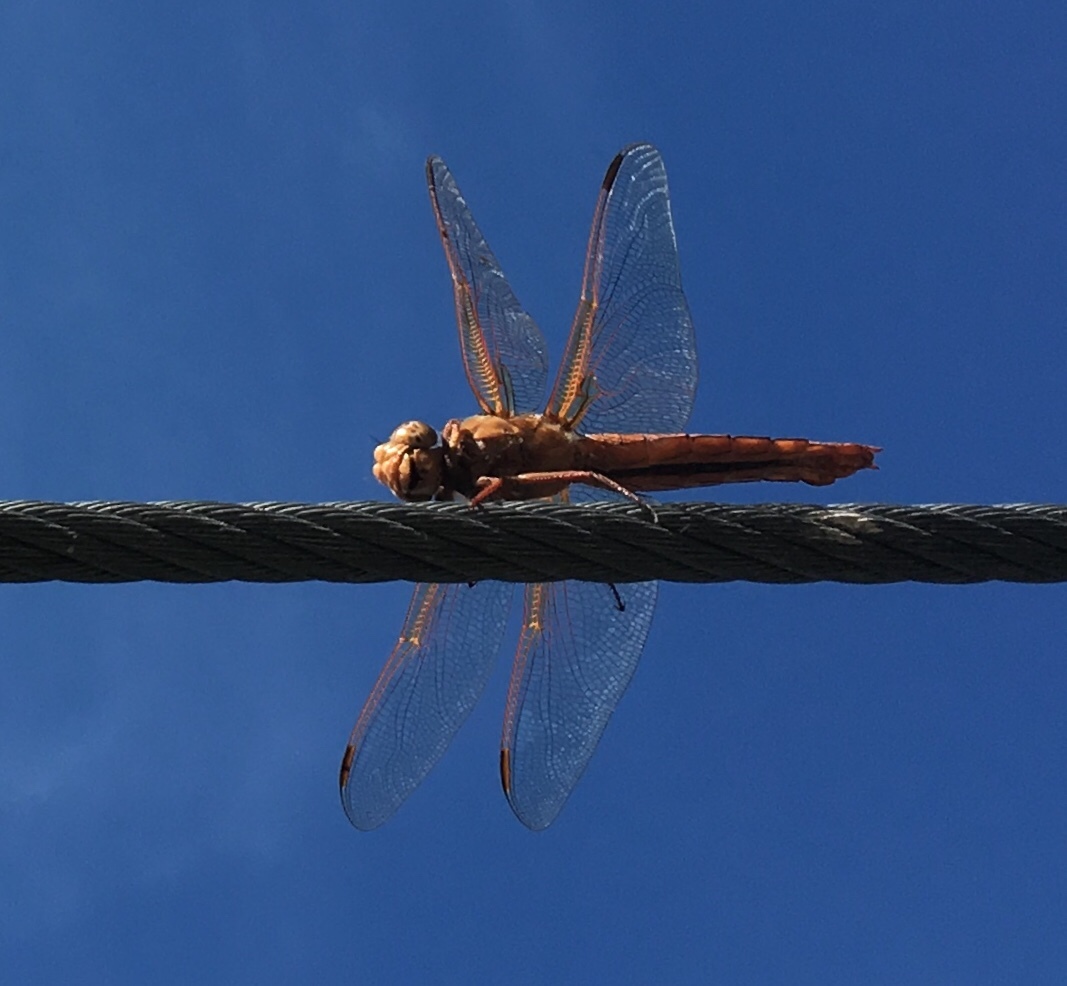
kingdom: Animalia
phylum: Arthropoda
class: Insecta
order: Odonata
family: Libellulidae
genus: Libellula
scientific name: Libellula saturata
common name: Flame skimmer
